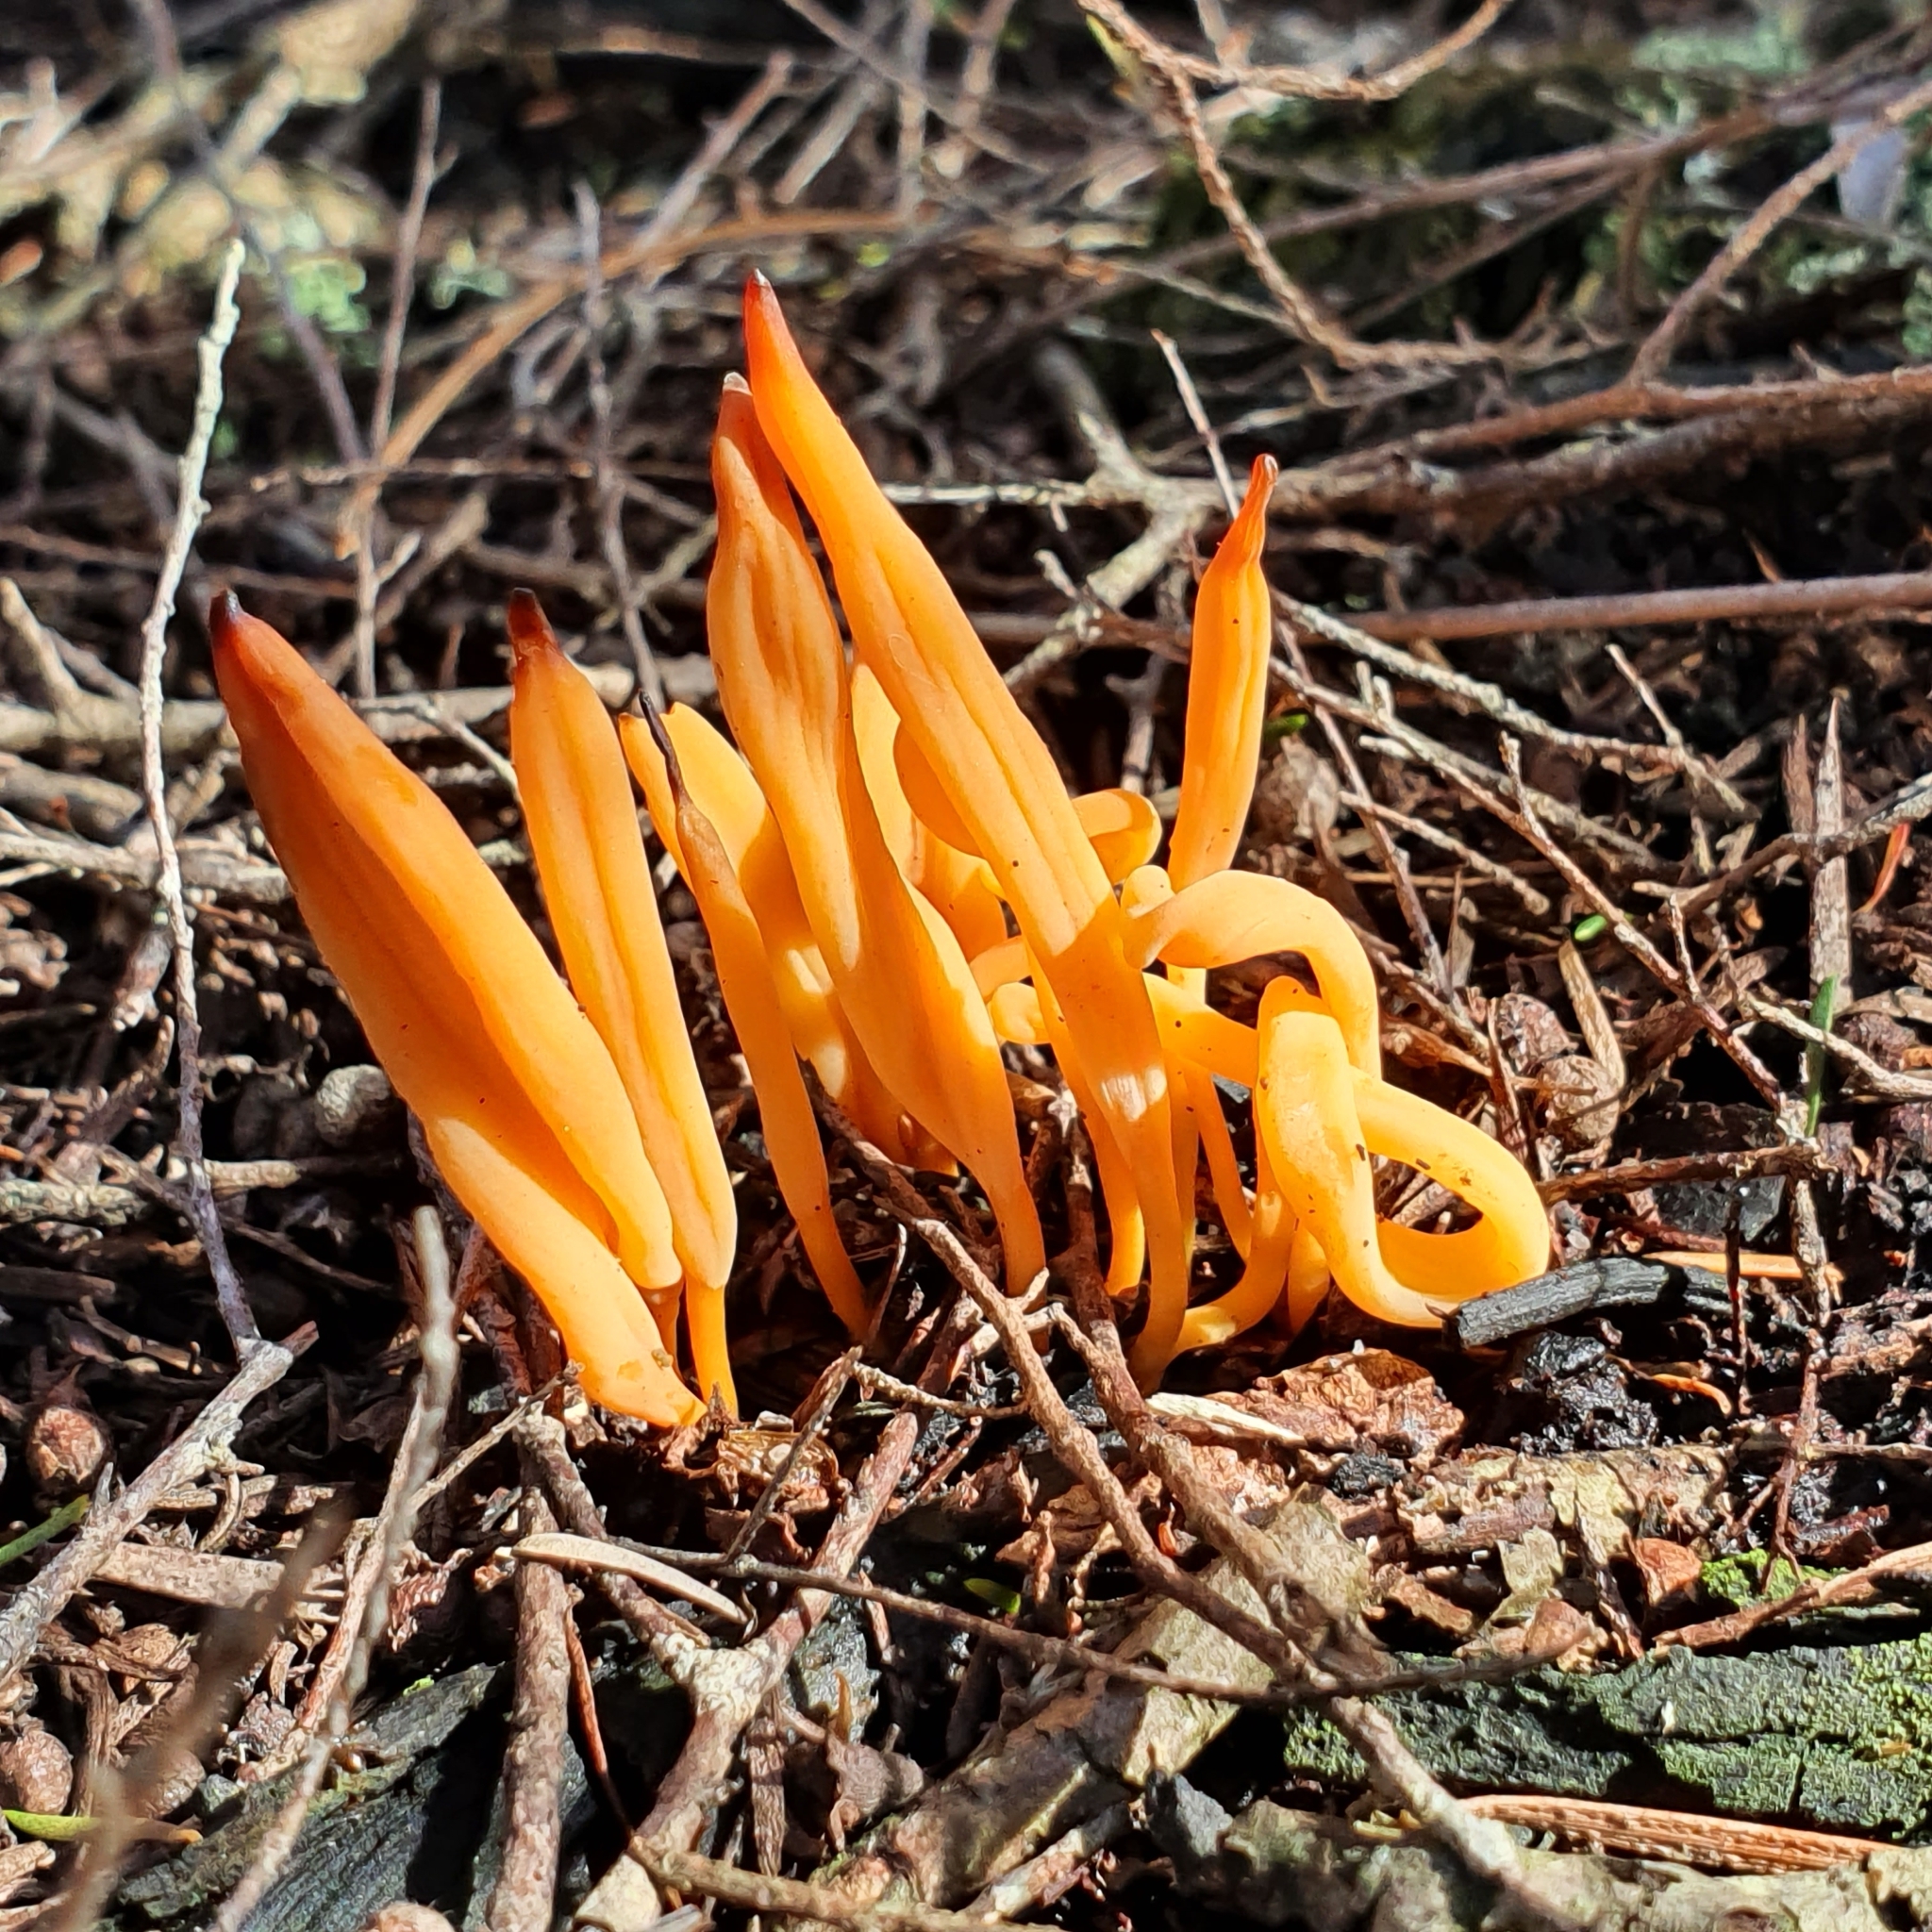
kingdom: Fungi
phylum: Basidiomycota
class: Agaricomycetes
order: Agaricales
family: Clavariaceae
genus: Clavulinopsis
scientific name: Clavulinopsis sulcata
